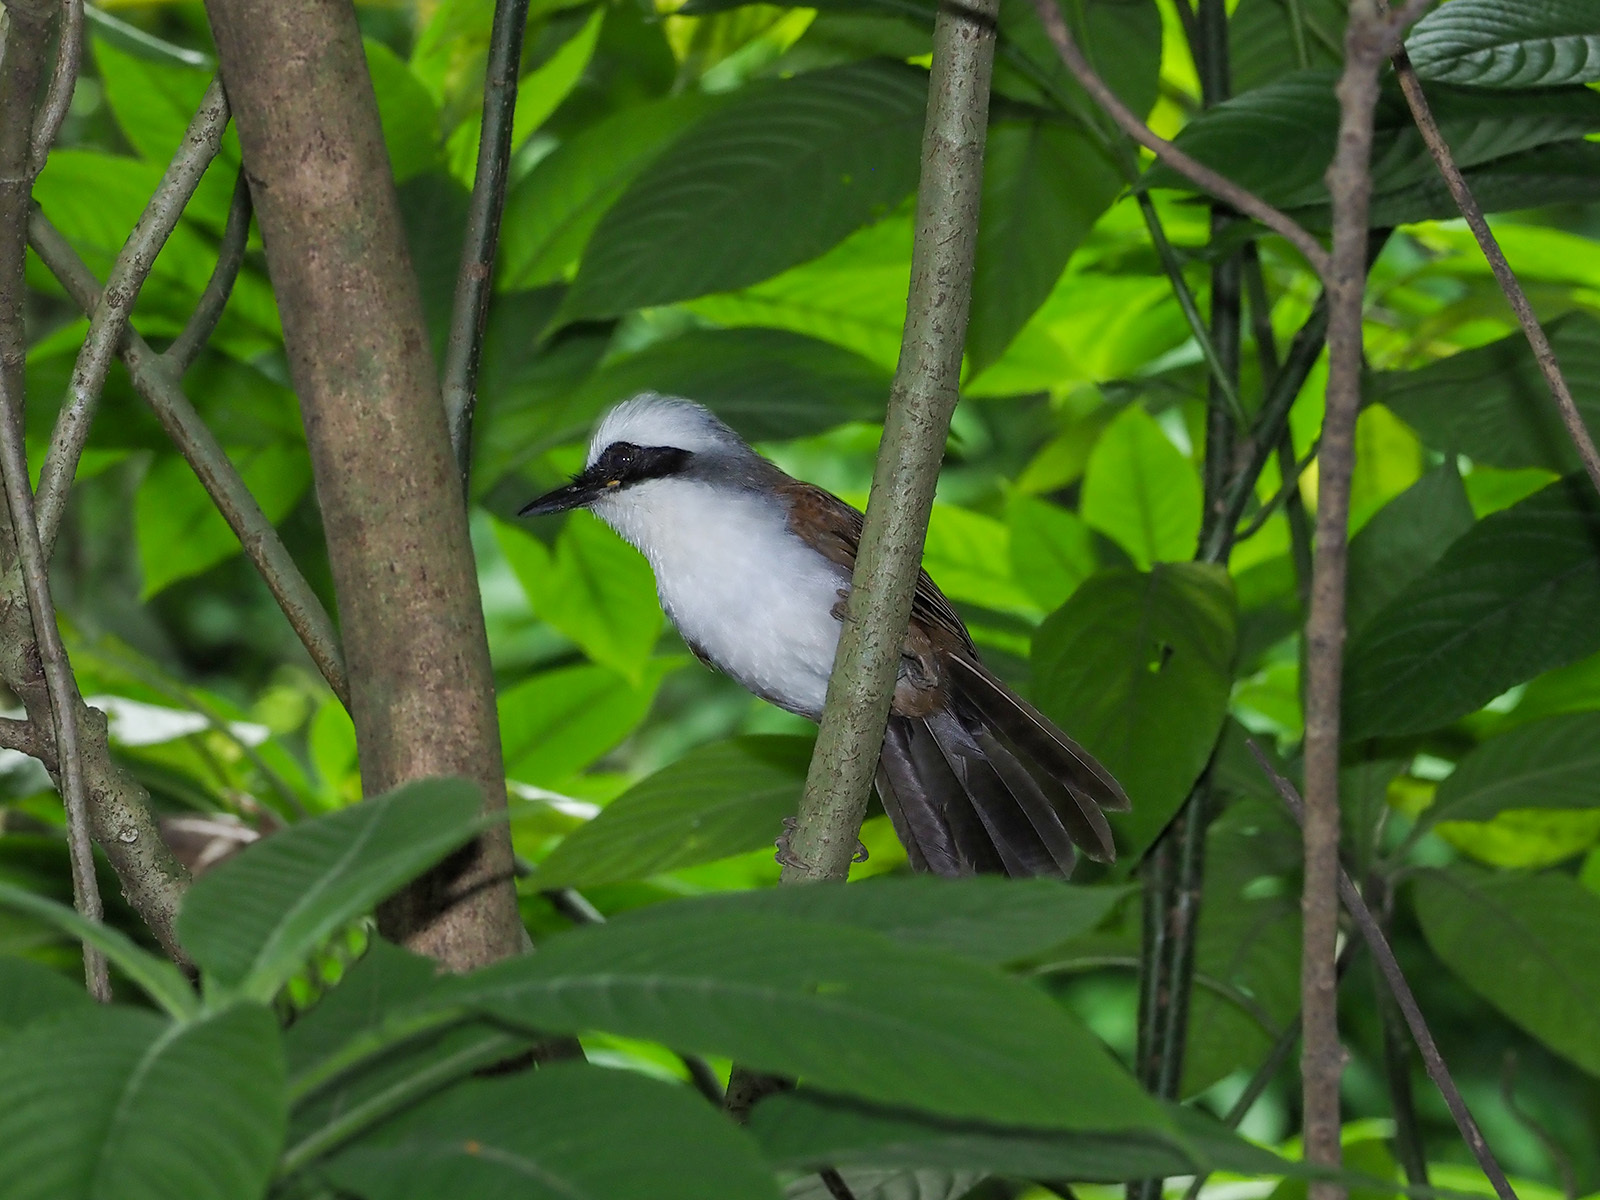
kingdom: Animalia
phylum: Chordata
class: Aves
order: Passeriformes
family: Leiothrichidae
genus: Garrulax
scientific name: Garrulax leucolophus
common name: White-crested laughingthrush
